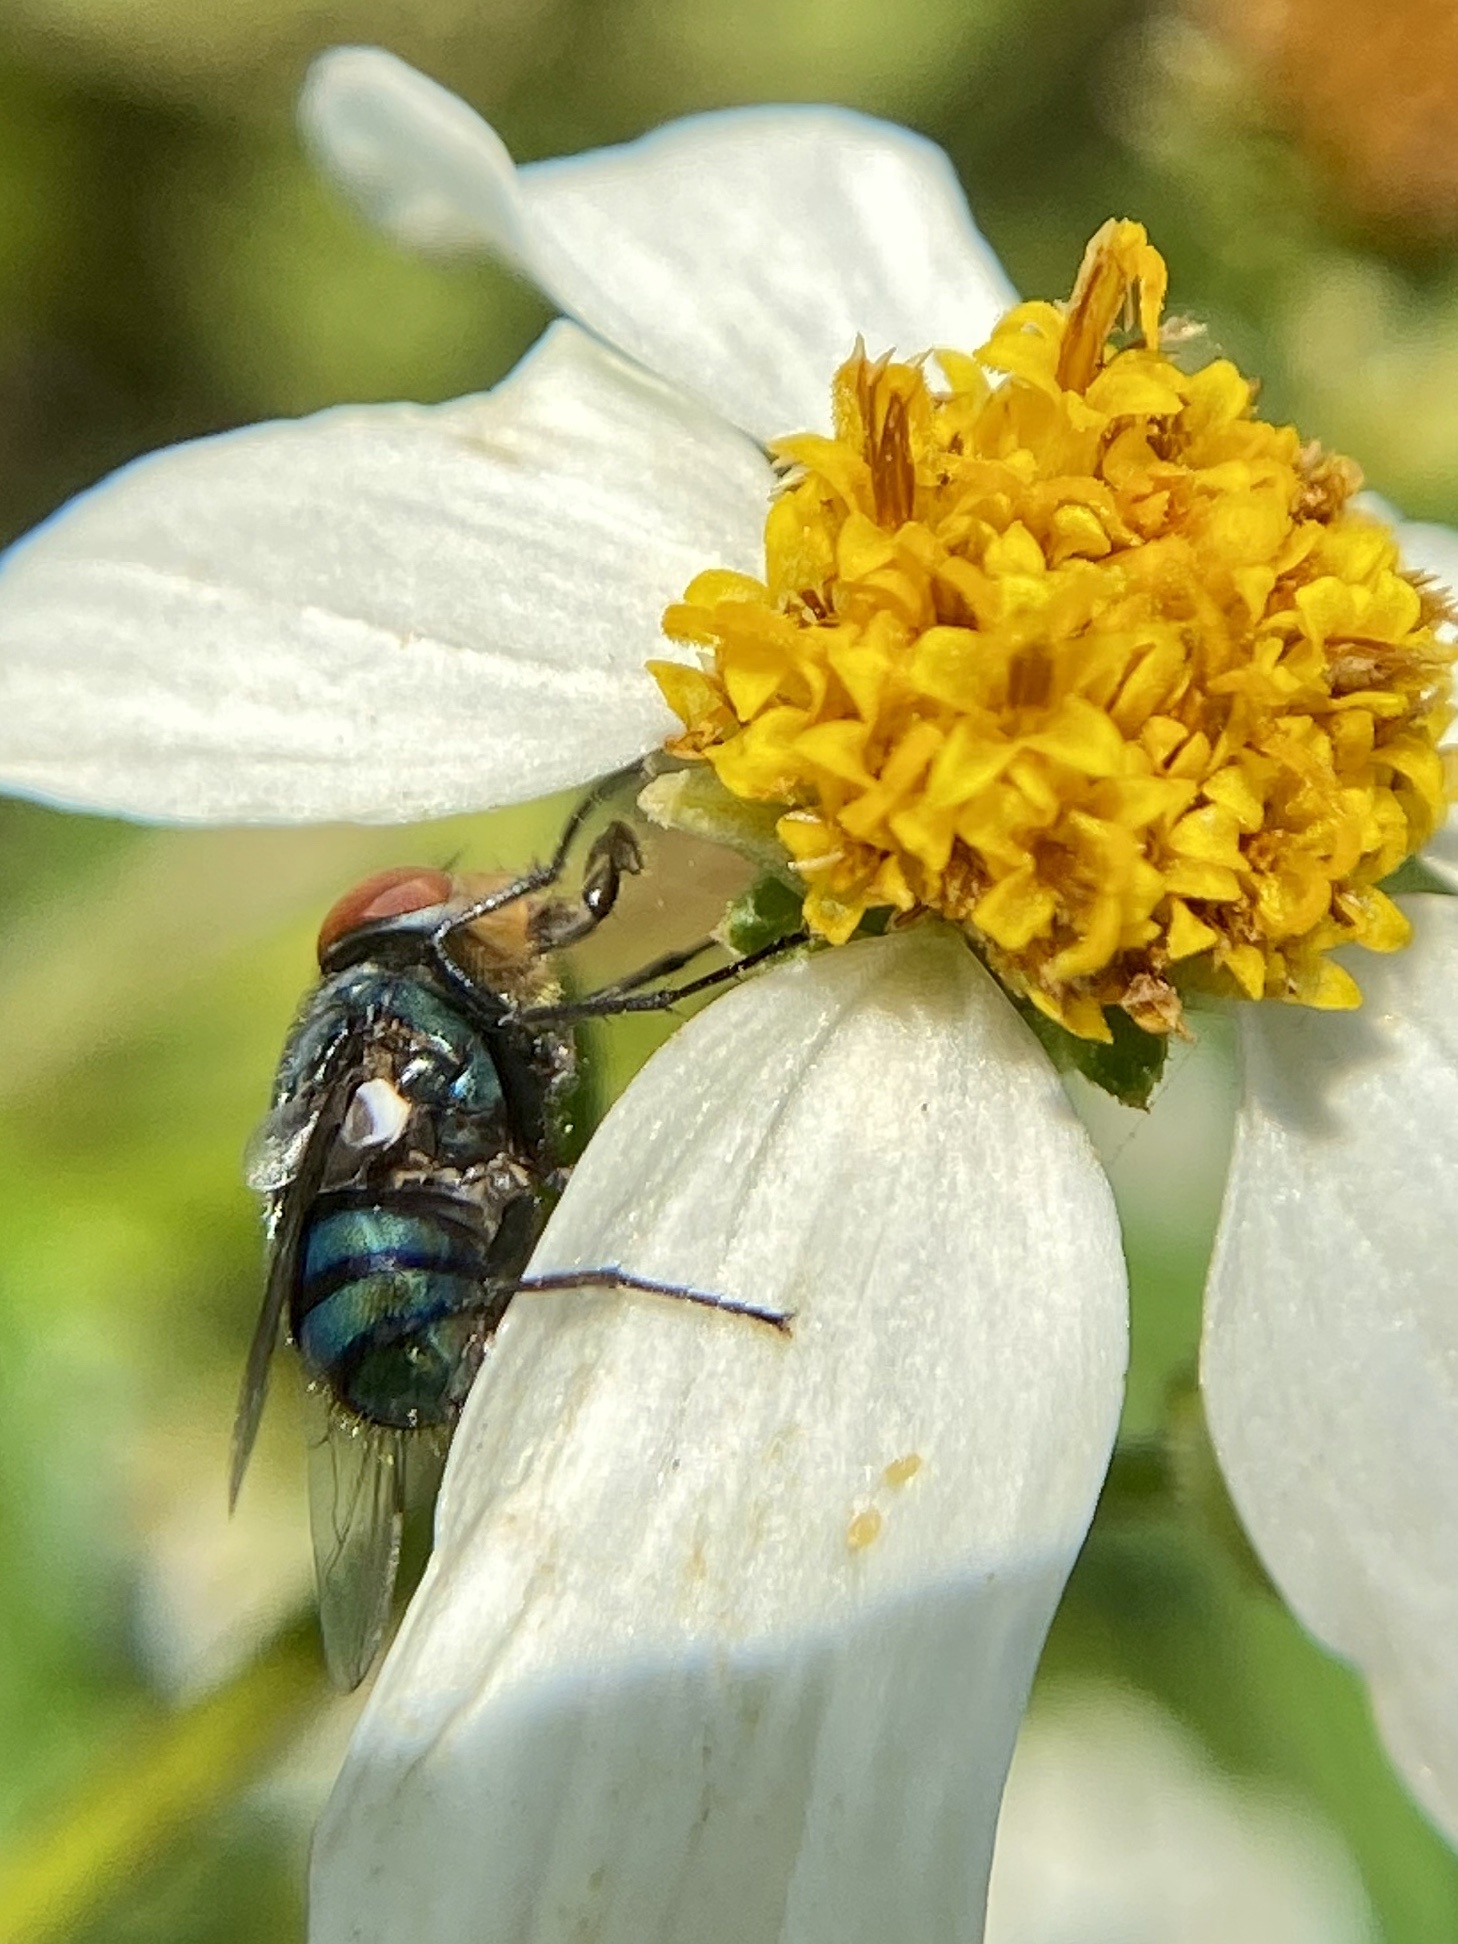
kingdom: Animalia
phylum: Arthropoda
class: Insecta
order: Diptera
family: Calliphoridae
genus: Chrysomya
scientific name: Chrysomya megacephala
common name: Blow fly
